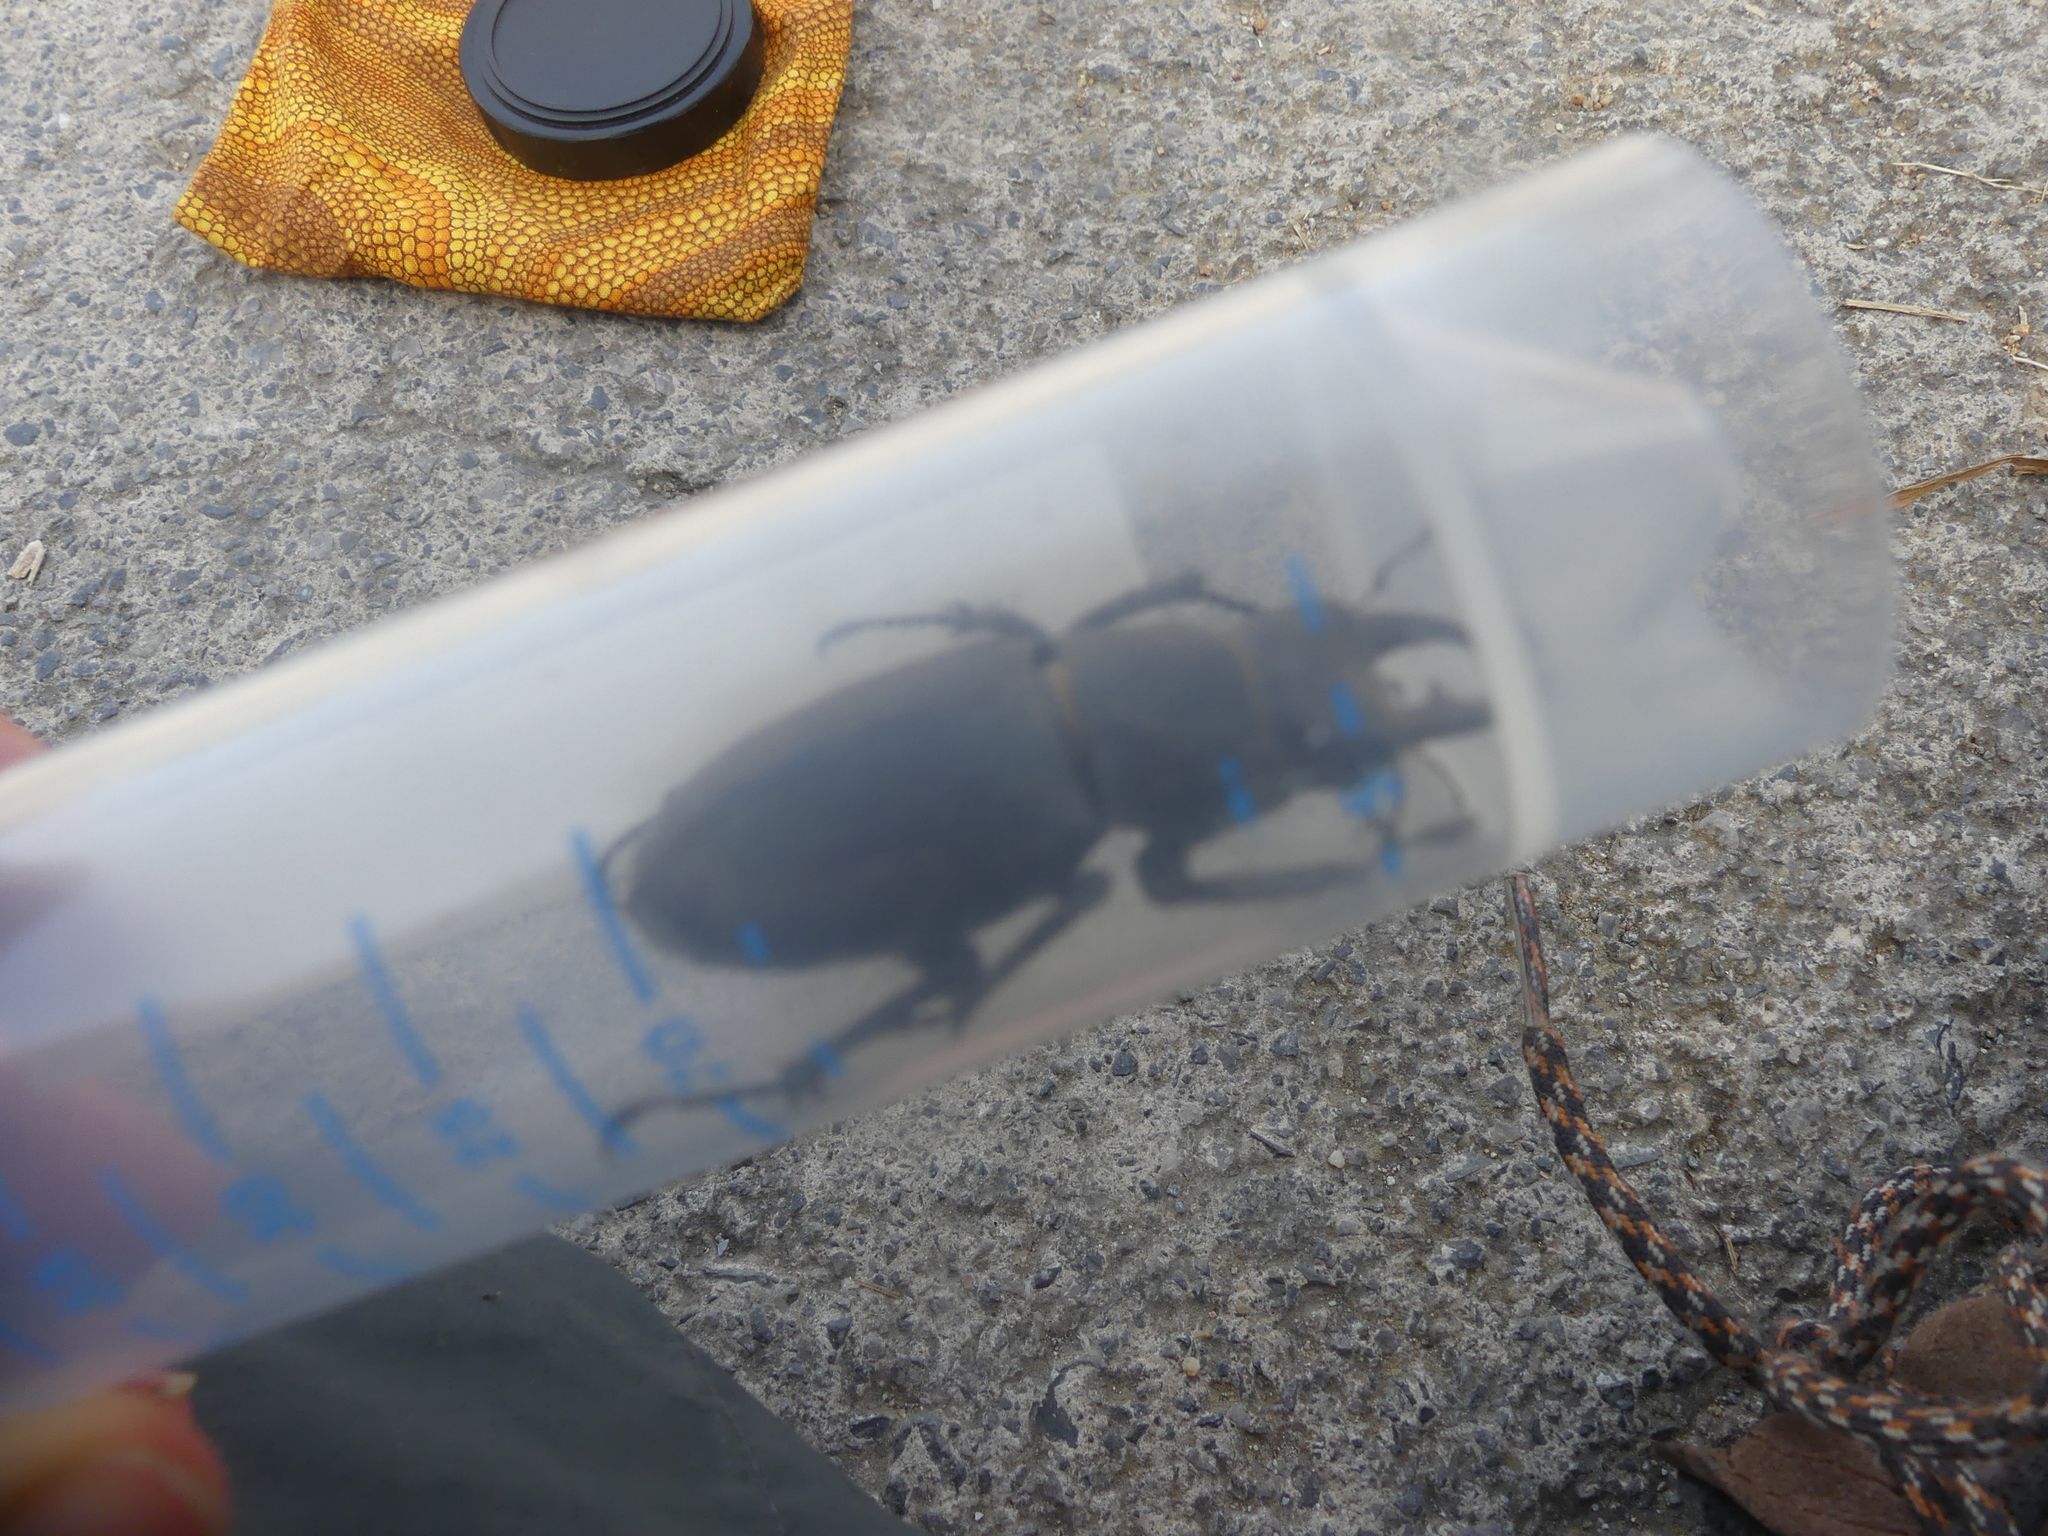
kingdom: Animalia
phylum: Arthropoda
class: Insecta
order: Coleoptera
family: Lucanidae
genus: Lucanus
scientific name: Lucanus tetraodon
